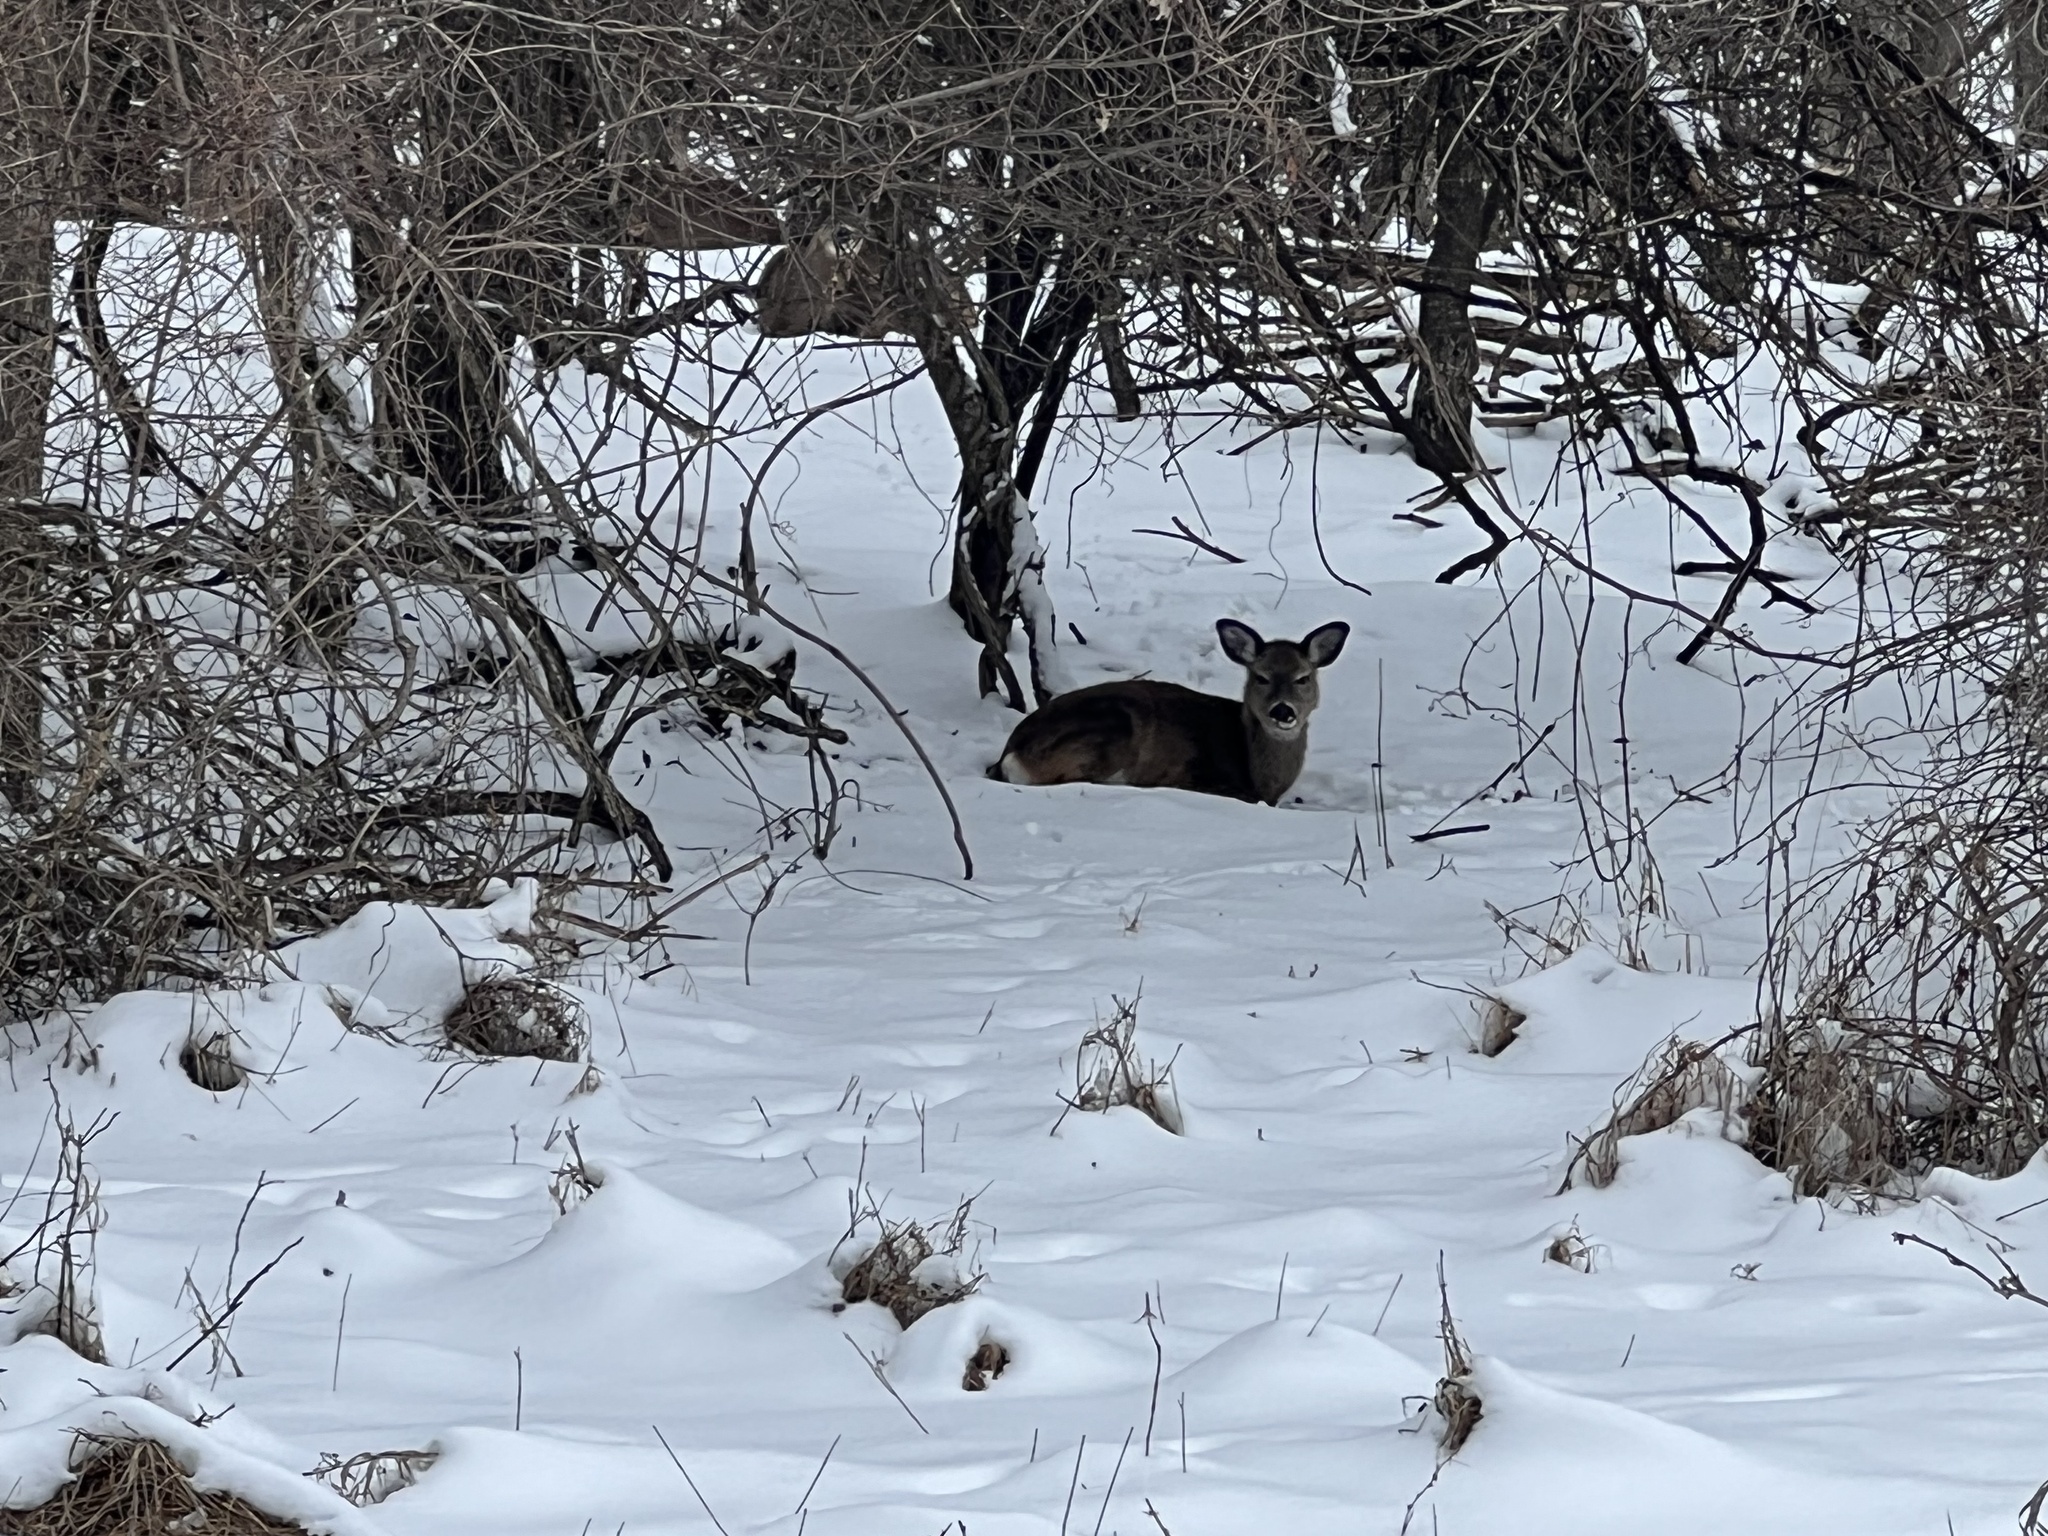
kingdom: Animalia
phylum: Chordata
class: Mammalia
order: Artiodactyla
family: Cervidae
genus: Odocoileus
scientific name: Odocoileus virginianus
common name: White-tailed deer
